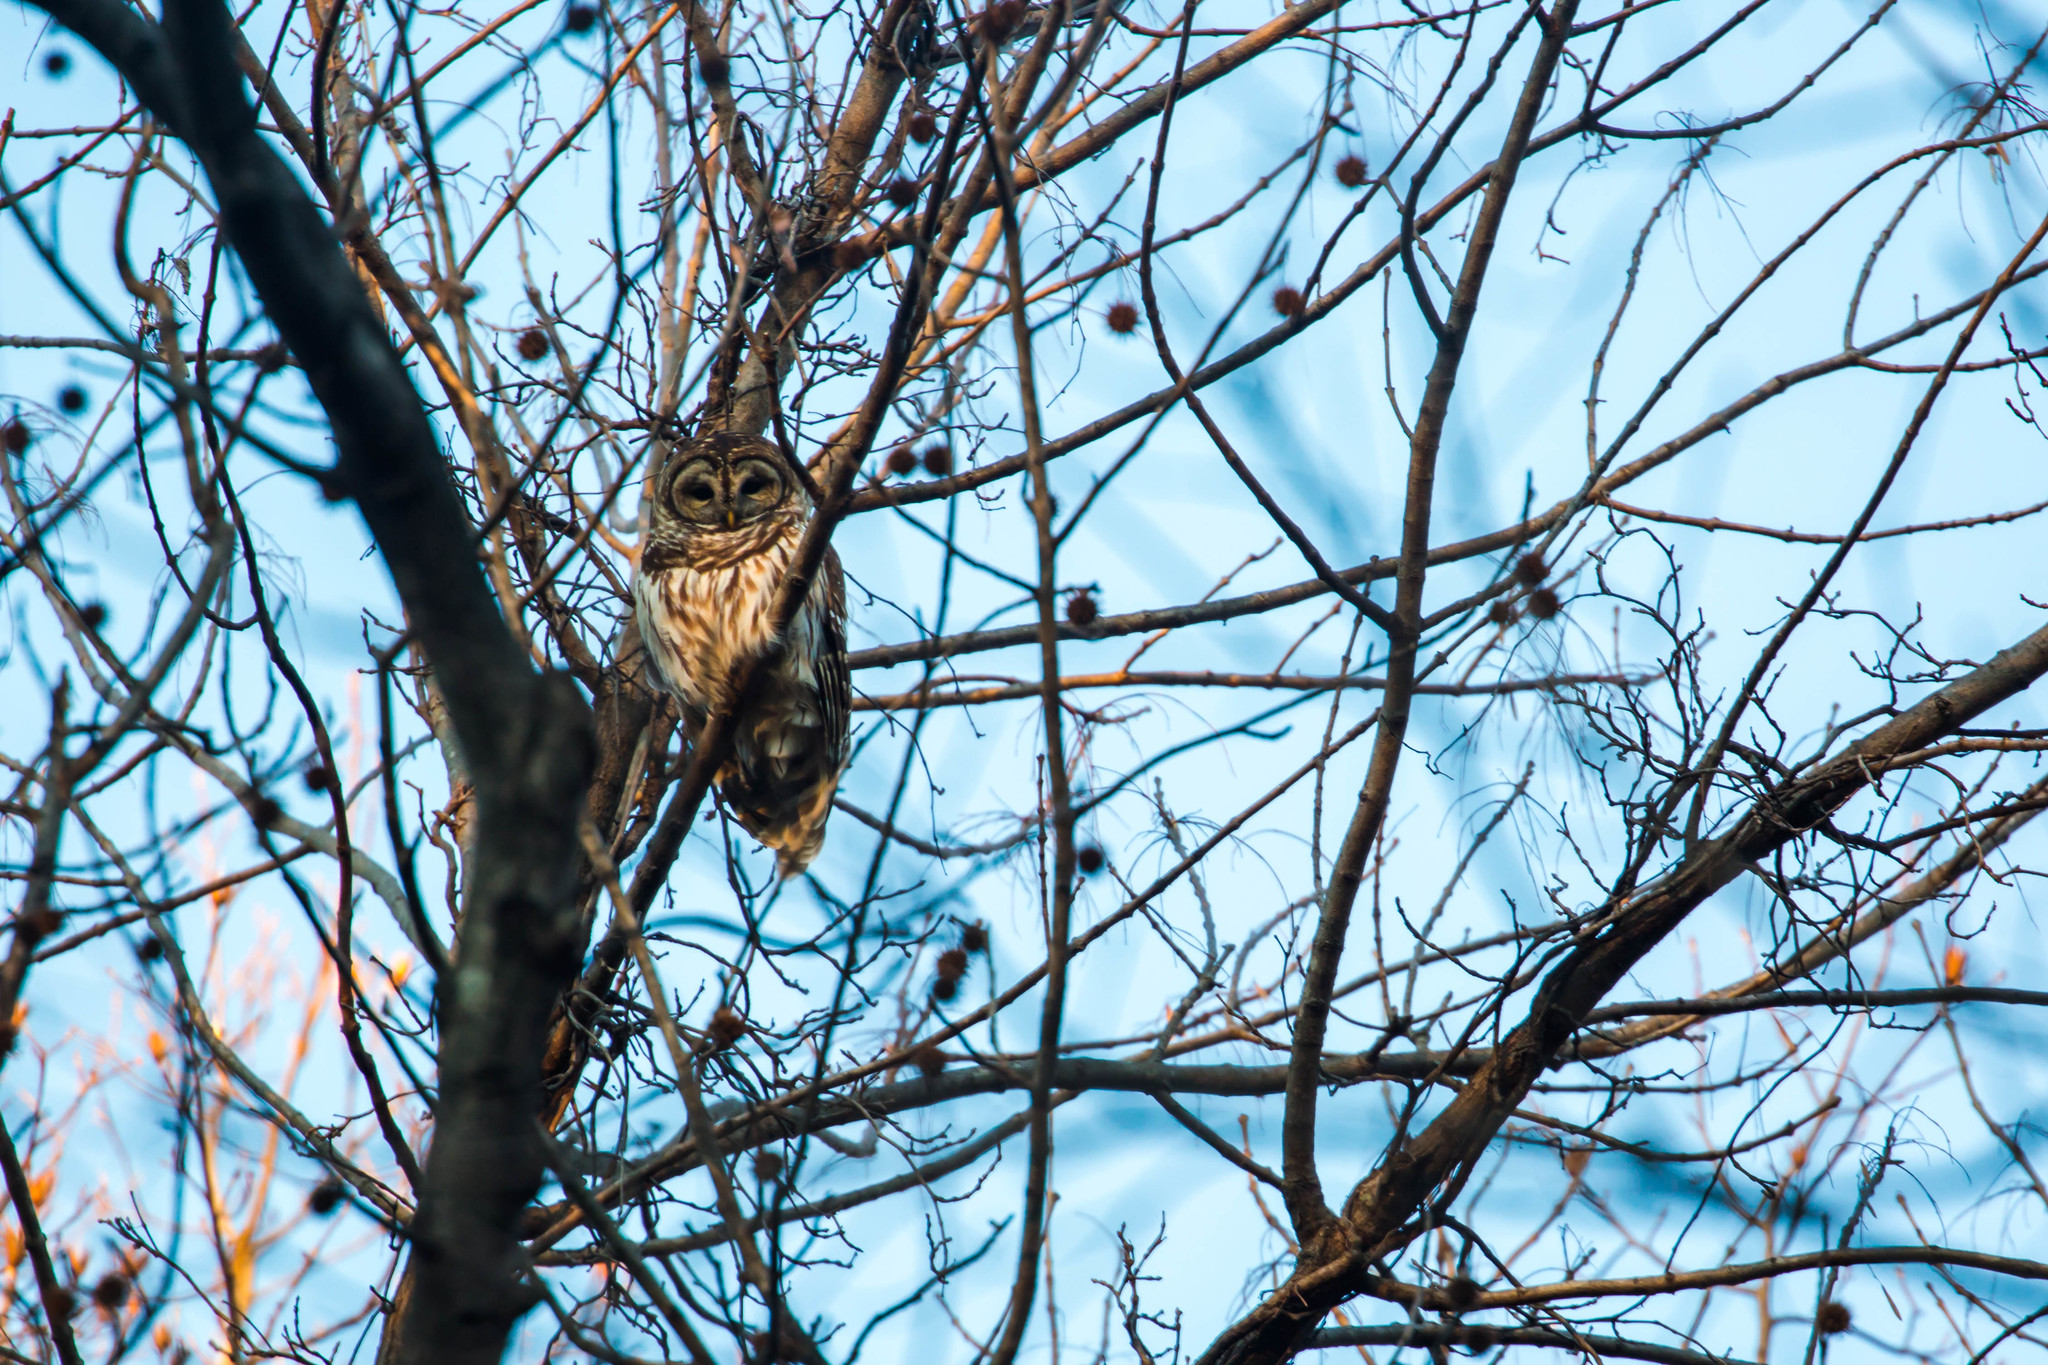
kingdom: Animalia
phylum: Chordata
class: Aves
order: Strigiformes
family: Strigidae
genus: Strix
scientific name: Strix varia
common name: Barred owl
